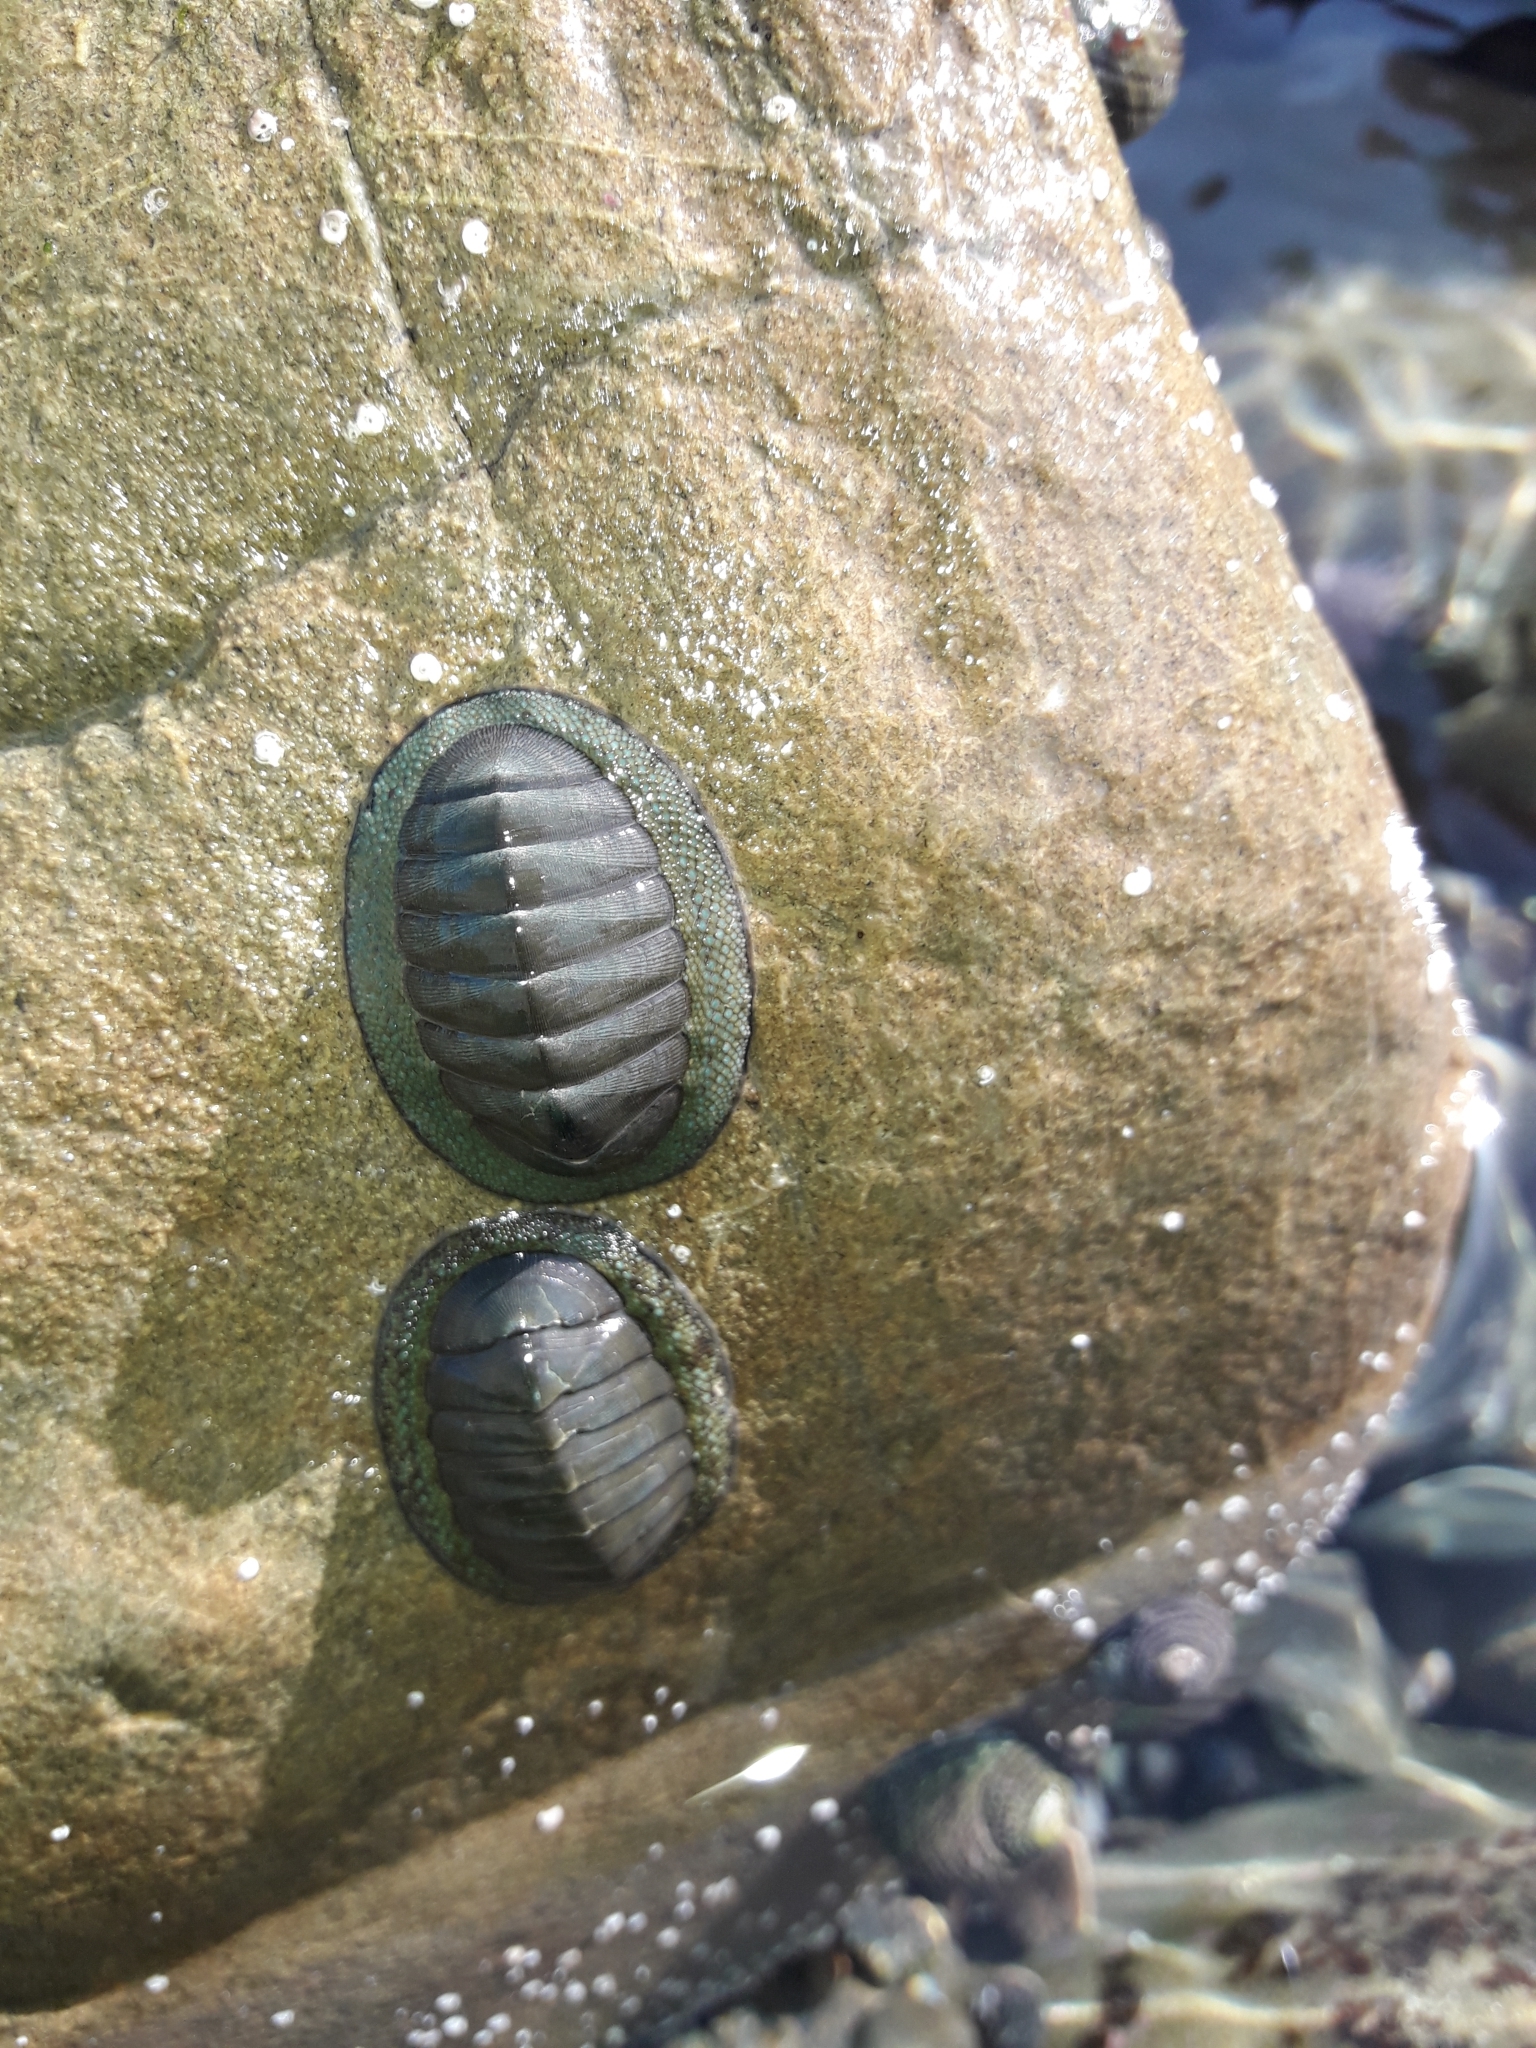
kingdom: Animalia
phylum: Mollusca
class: Polyplacophora
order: Chitonida
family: Chitonidae
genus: Chiton
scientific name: Chiton glaucus
